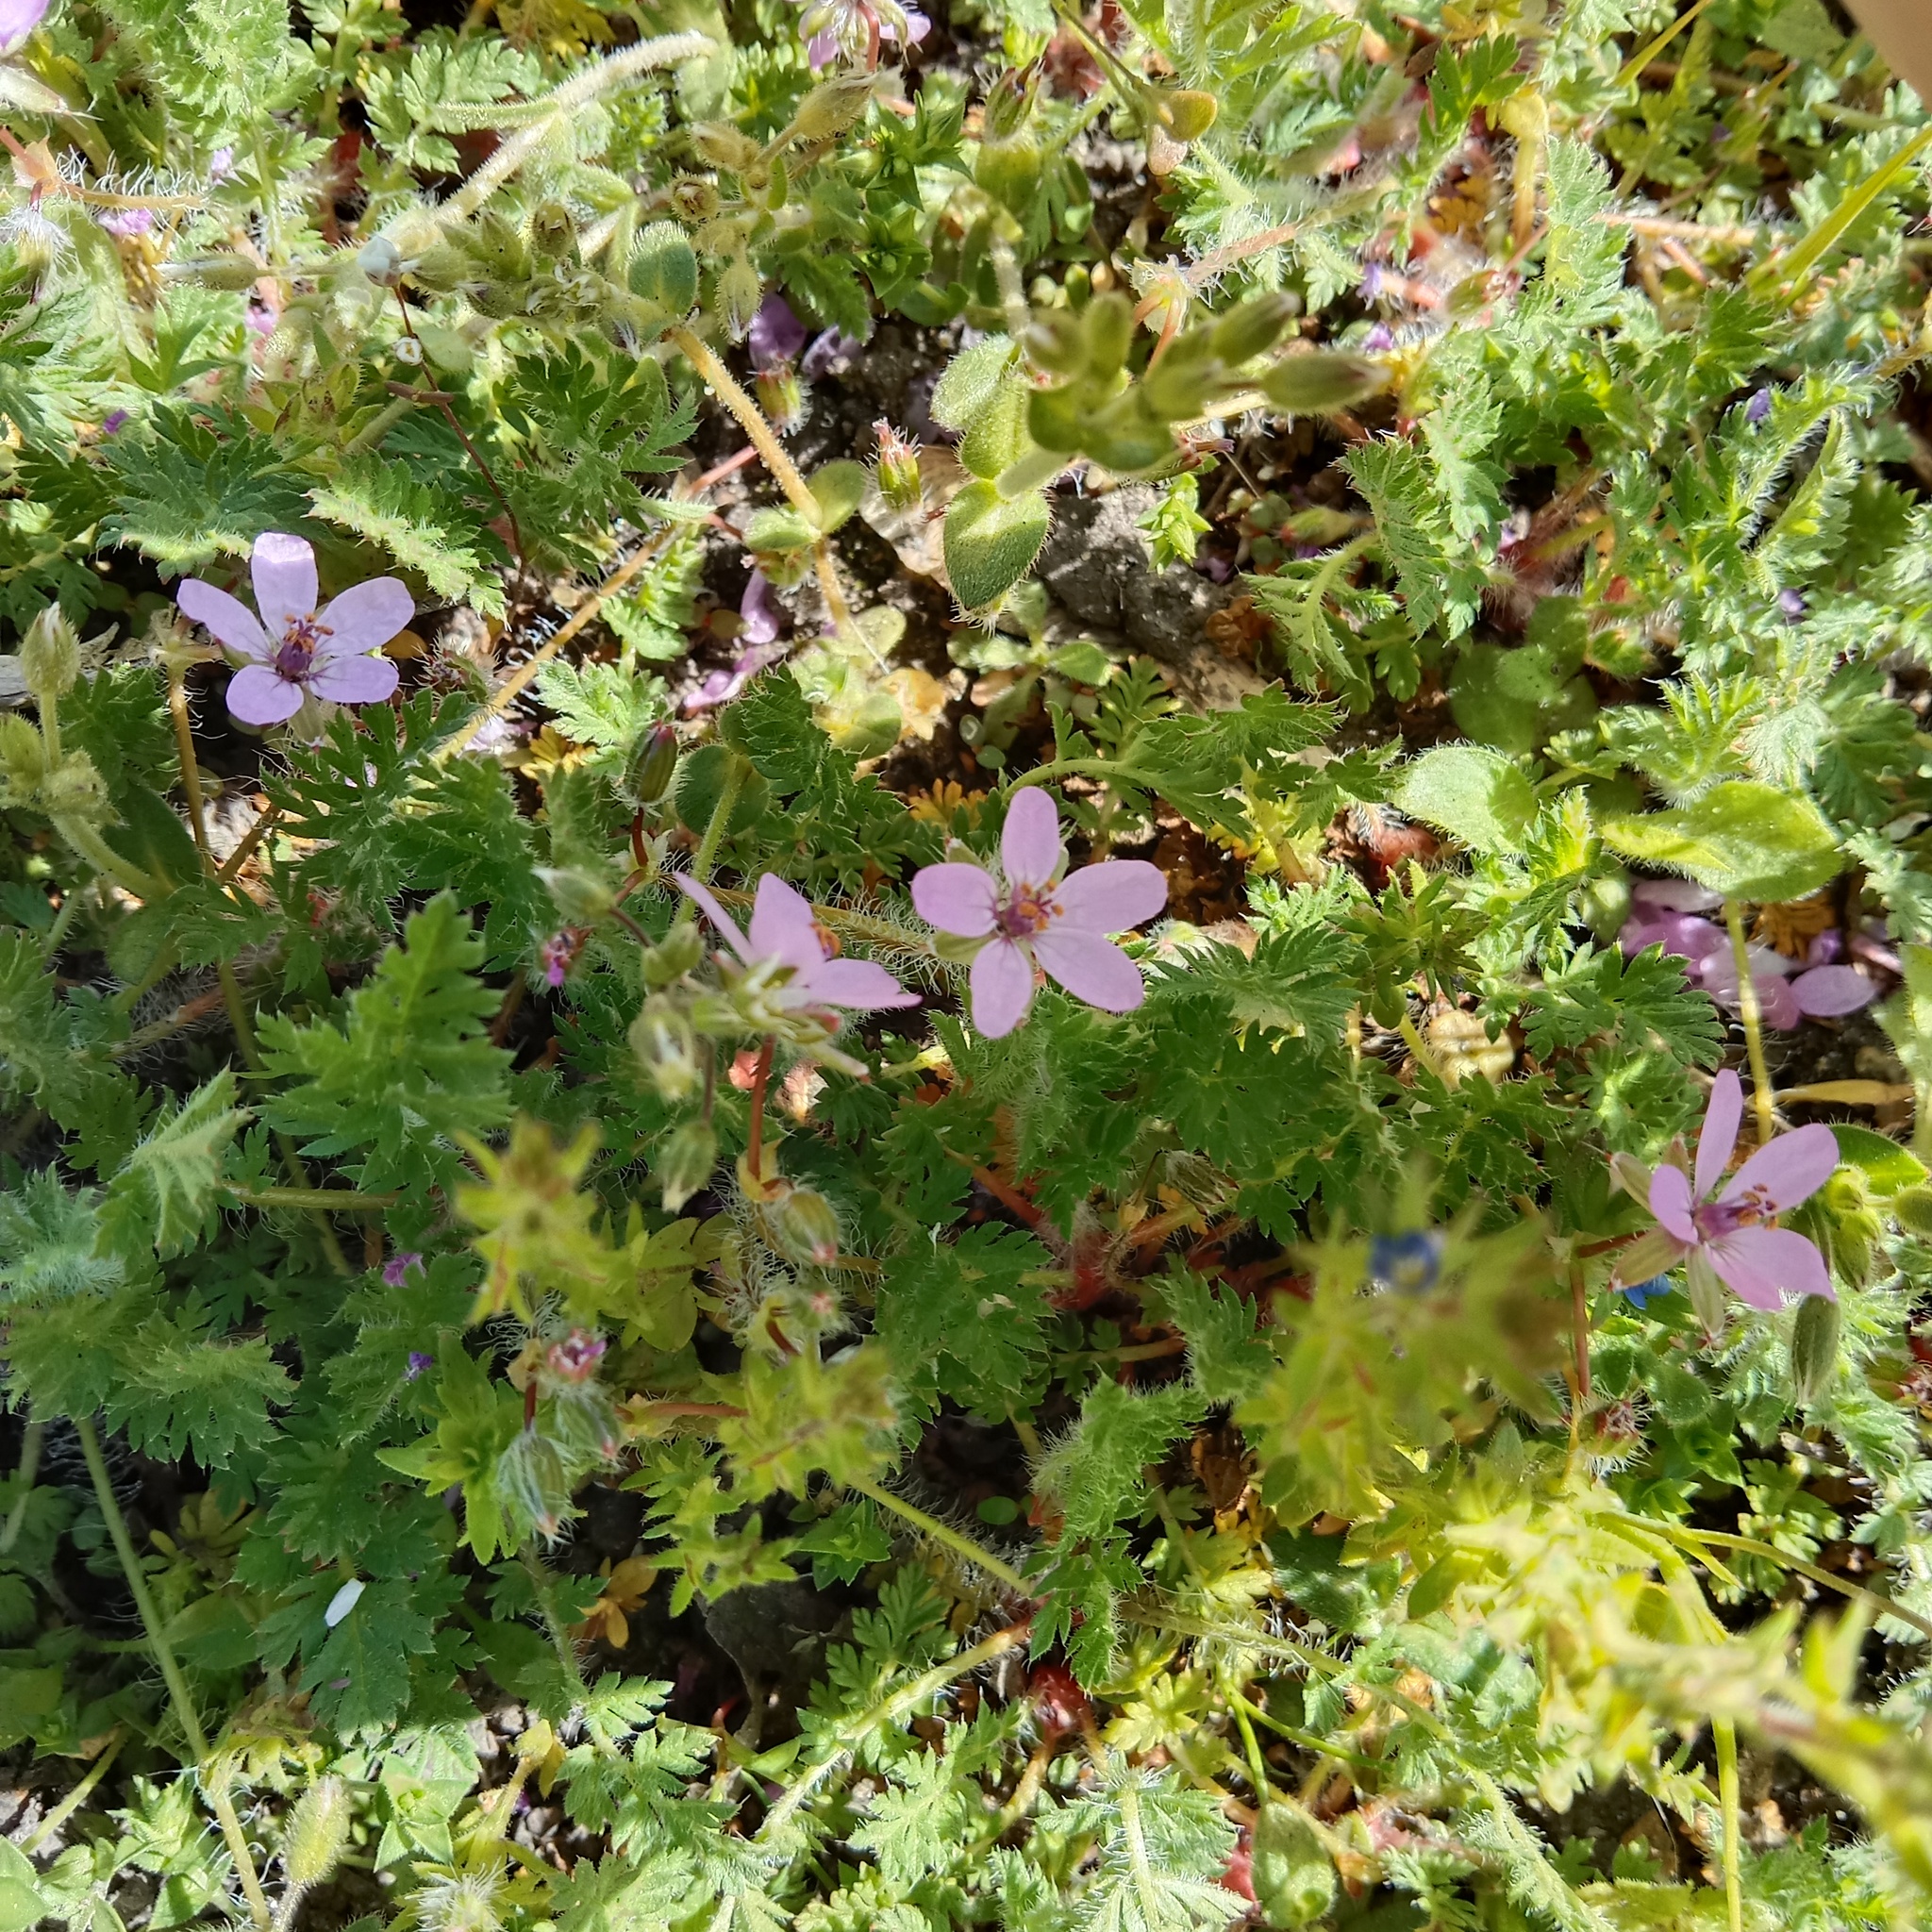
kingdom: Plantae
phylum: Tracheophyta
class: Magnoliopsida
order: Geraniales
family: Geraniaceae
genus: Erodium
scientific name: Erodium cicutarium
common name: Common stork's-bill
